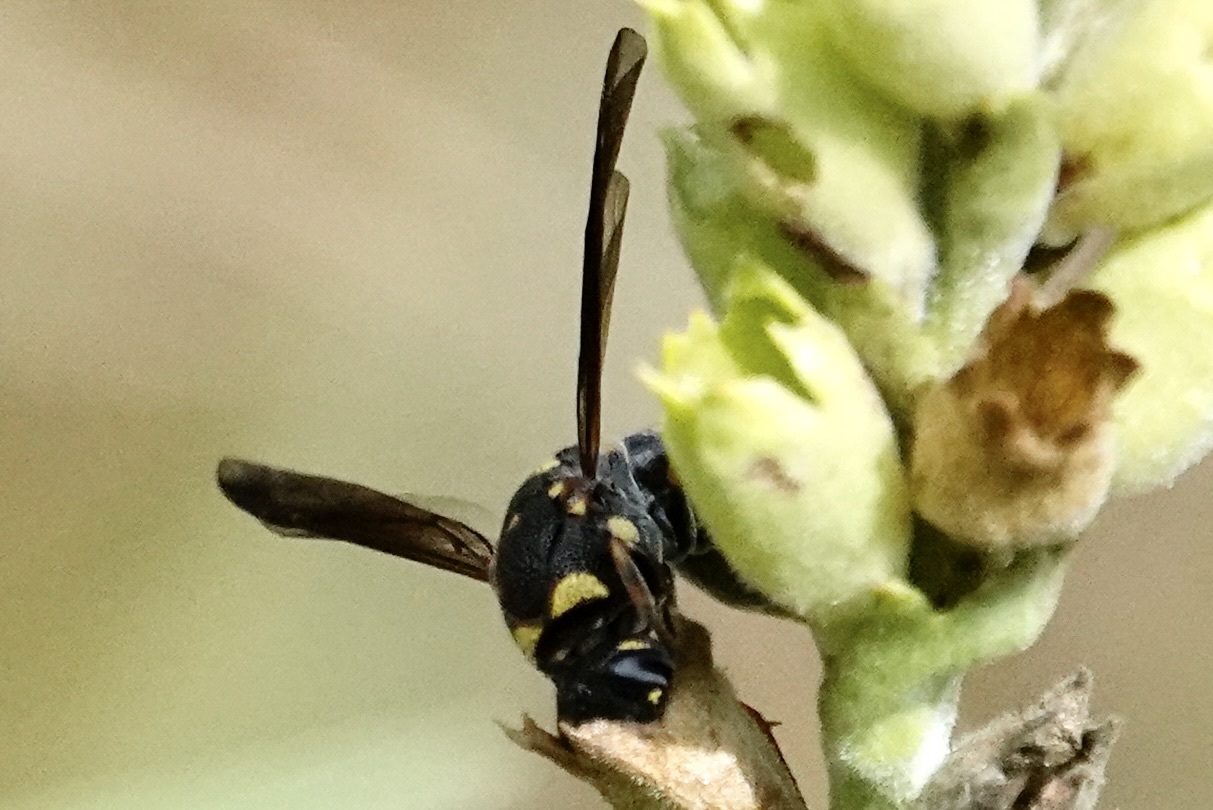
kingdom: Animalia
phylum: Arthropoda
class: Insecta
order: Hymenoptera
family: Eumenidae
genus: Parancistrocerus
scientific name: Parancistrocerus fulvipes
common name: Potter wasp
